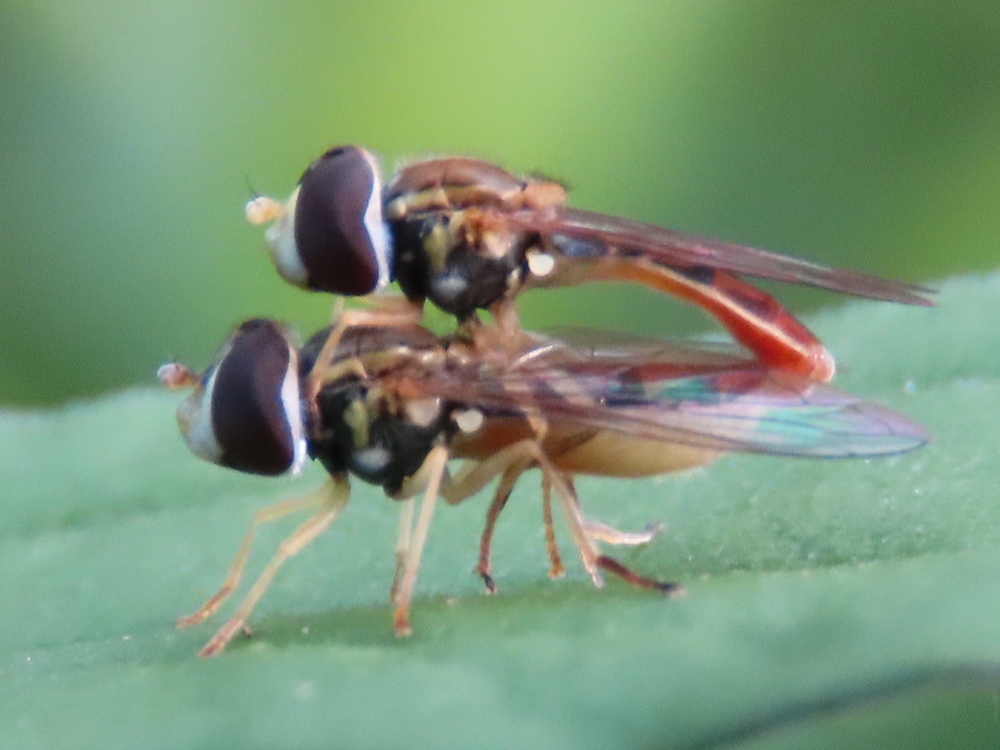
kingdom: Animalia
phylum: Arthropoda
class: Insecta
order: Diptera
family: Syrphidae
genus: Toxomerus
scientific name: Toxomerus marginatus
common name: Syrphid fly
